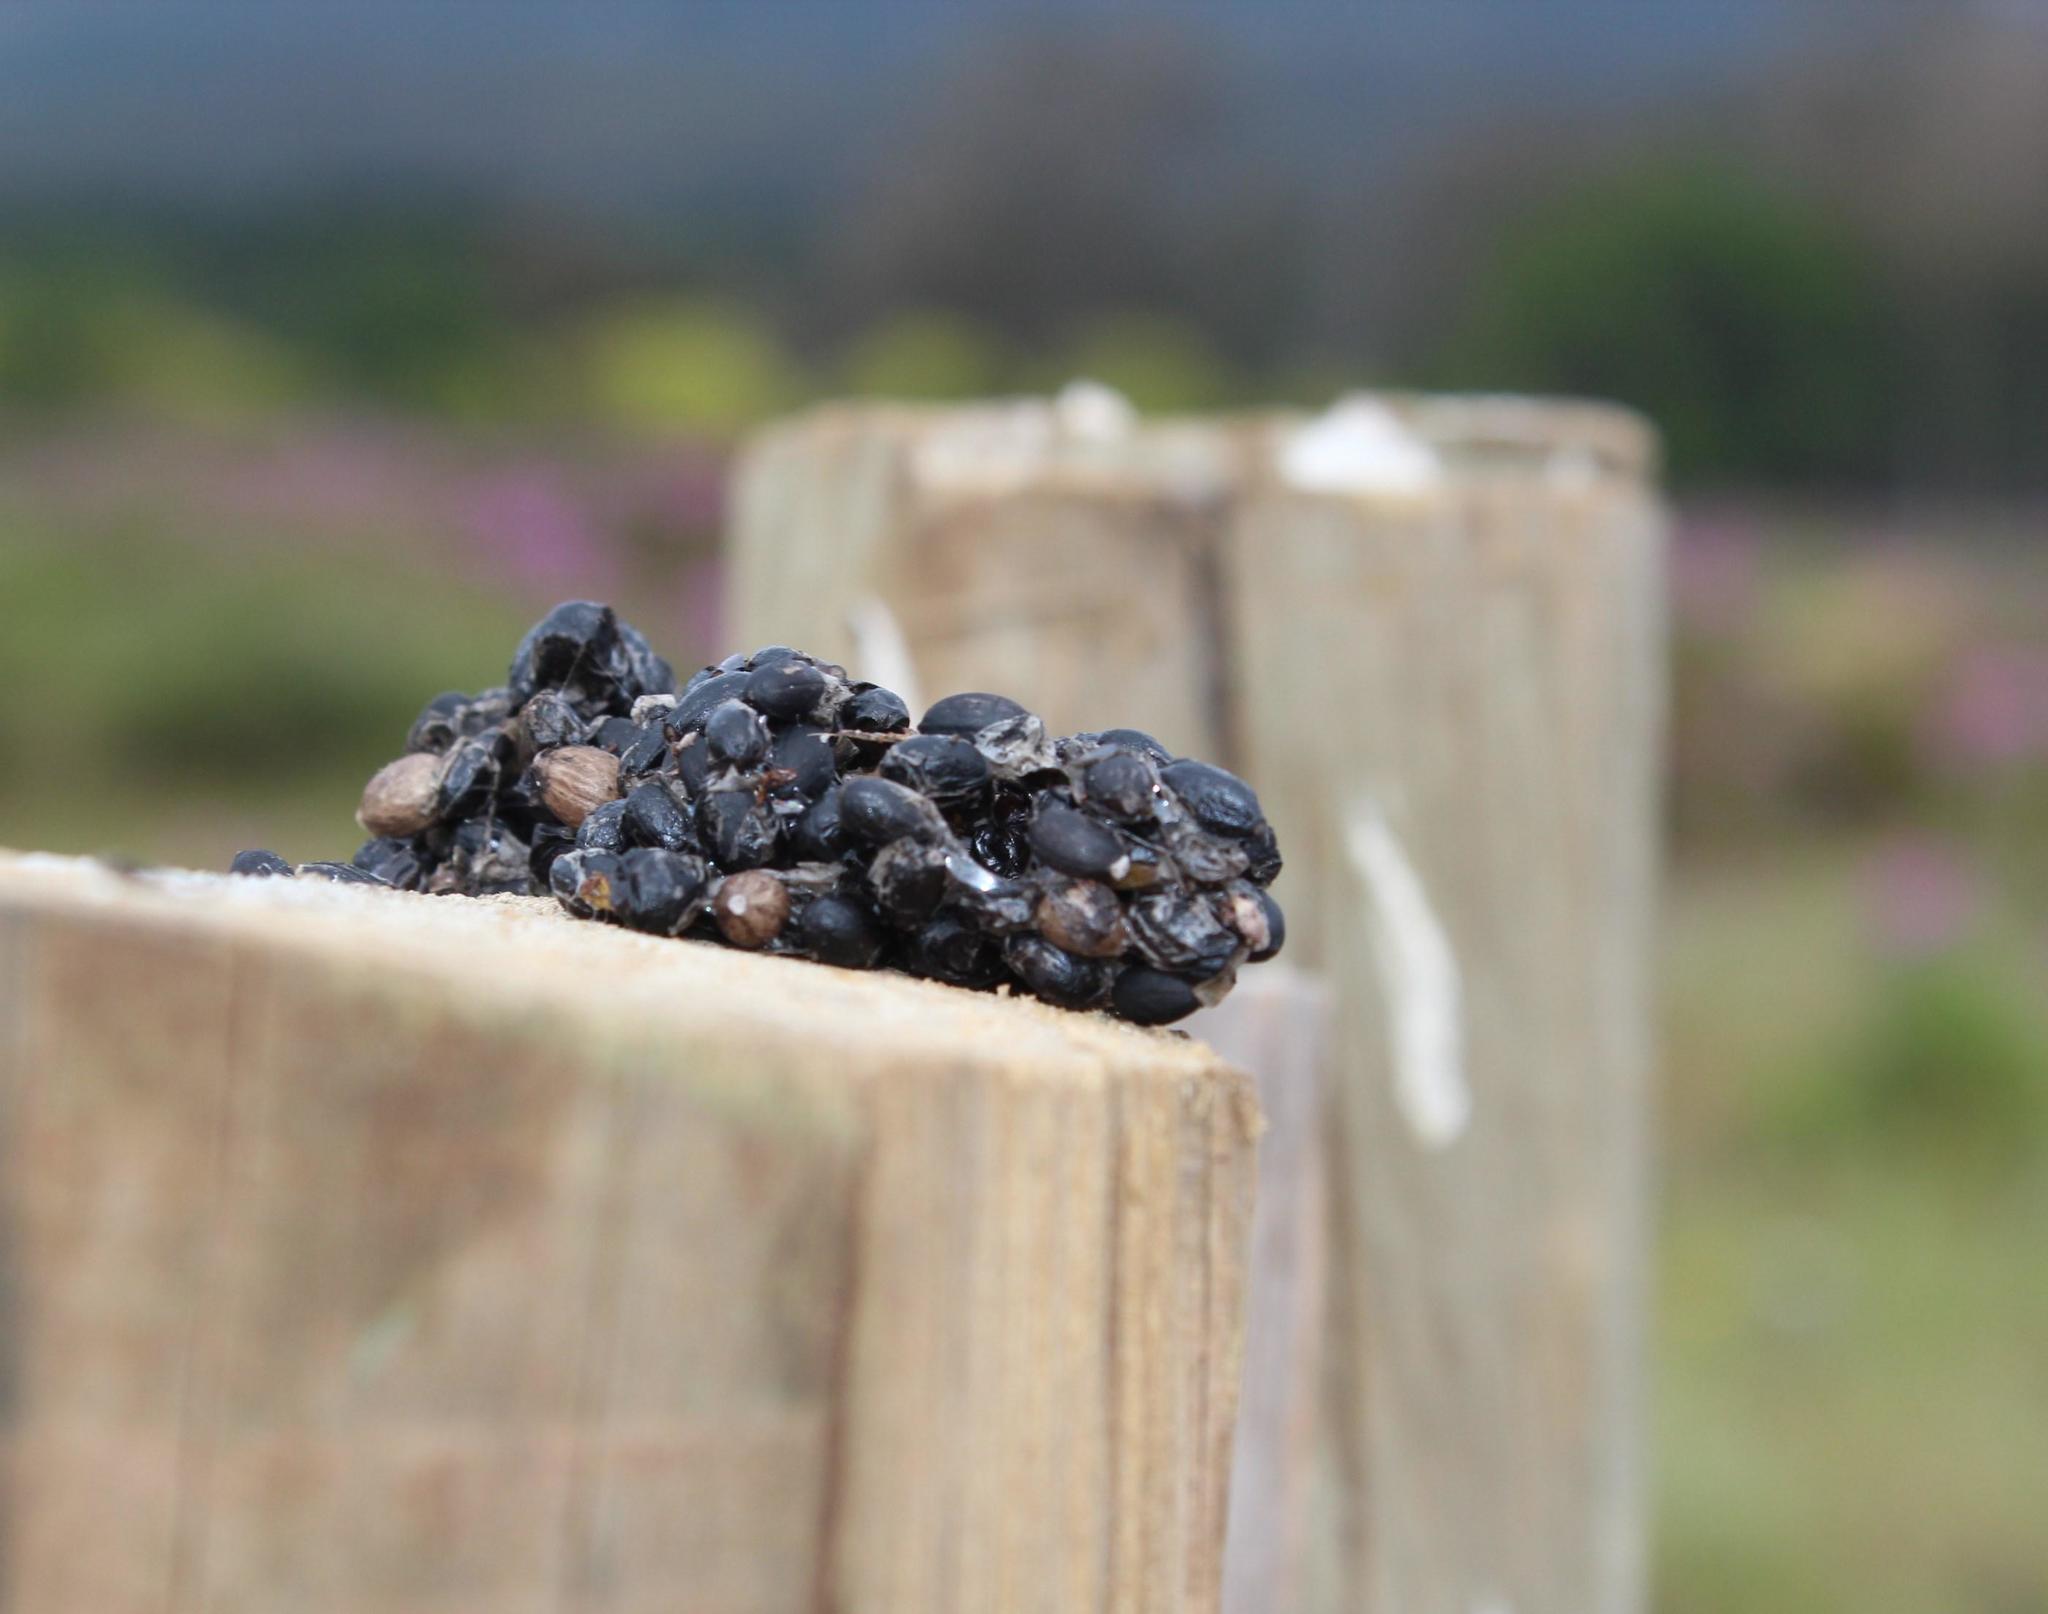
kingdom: Animalia
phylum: Chordata
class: Aves
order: Galliformes
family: Numididae
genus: Numida
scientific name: Numida meleagris
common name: Helmeted guineafowl
